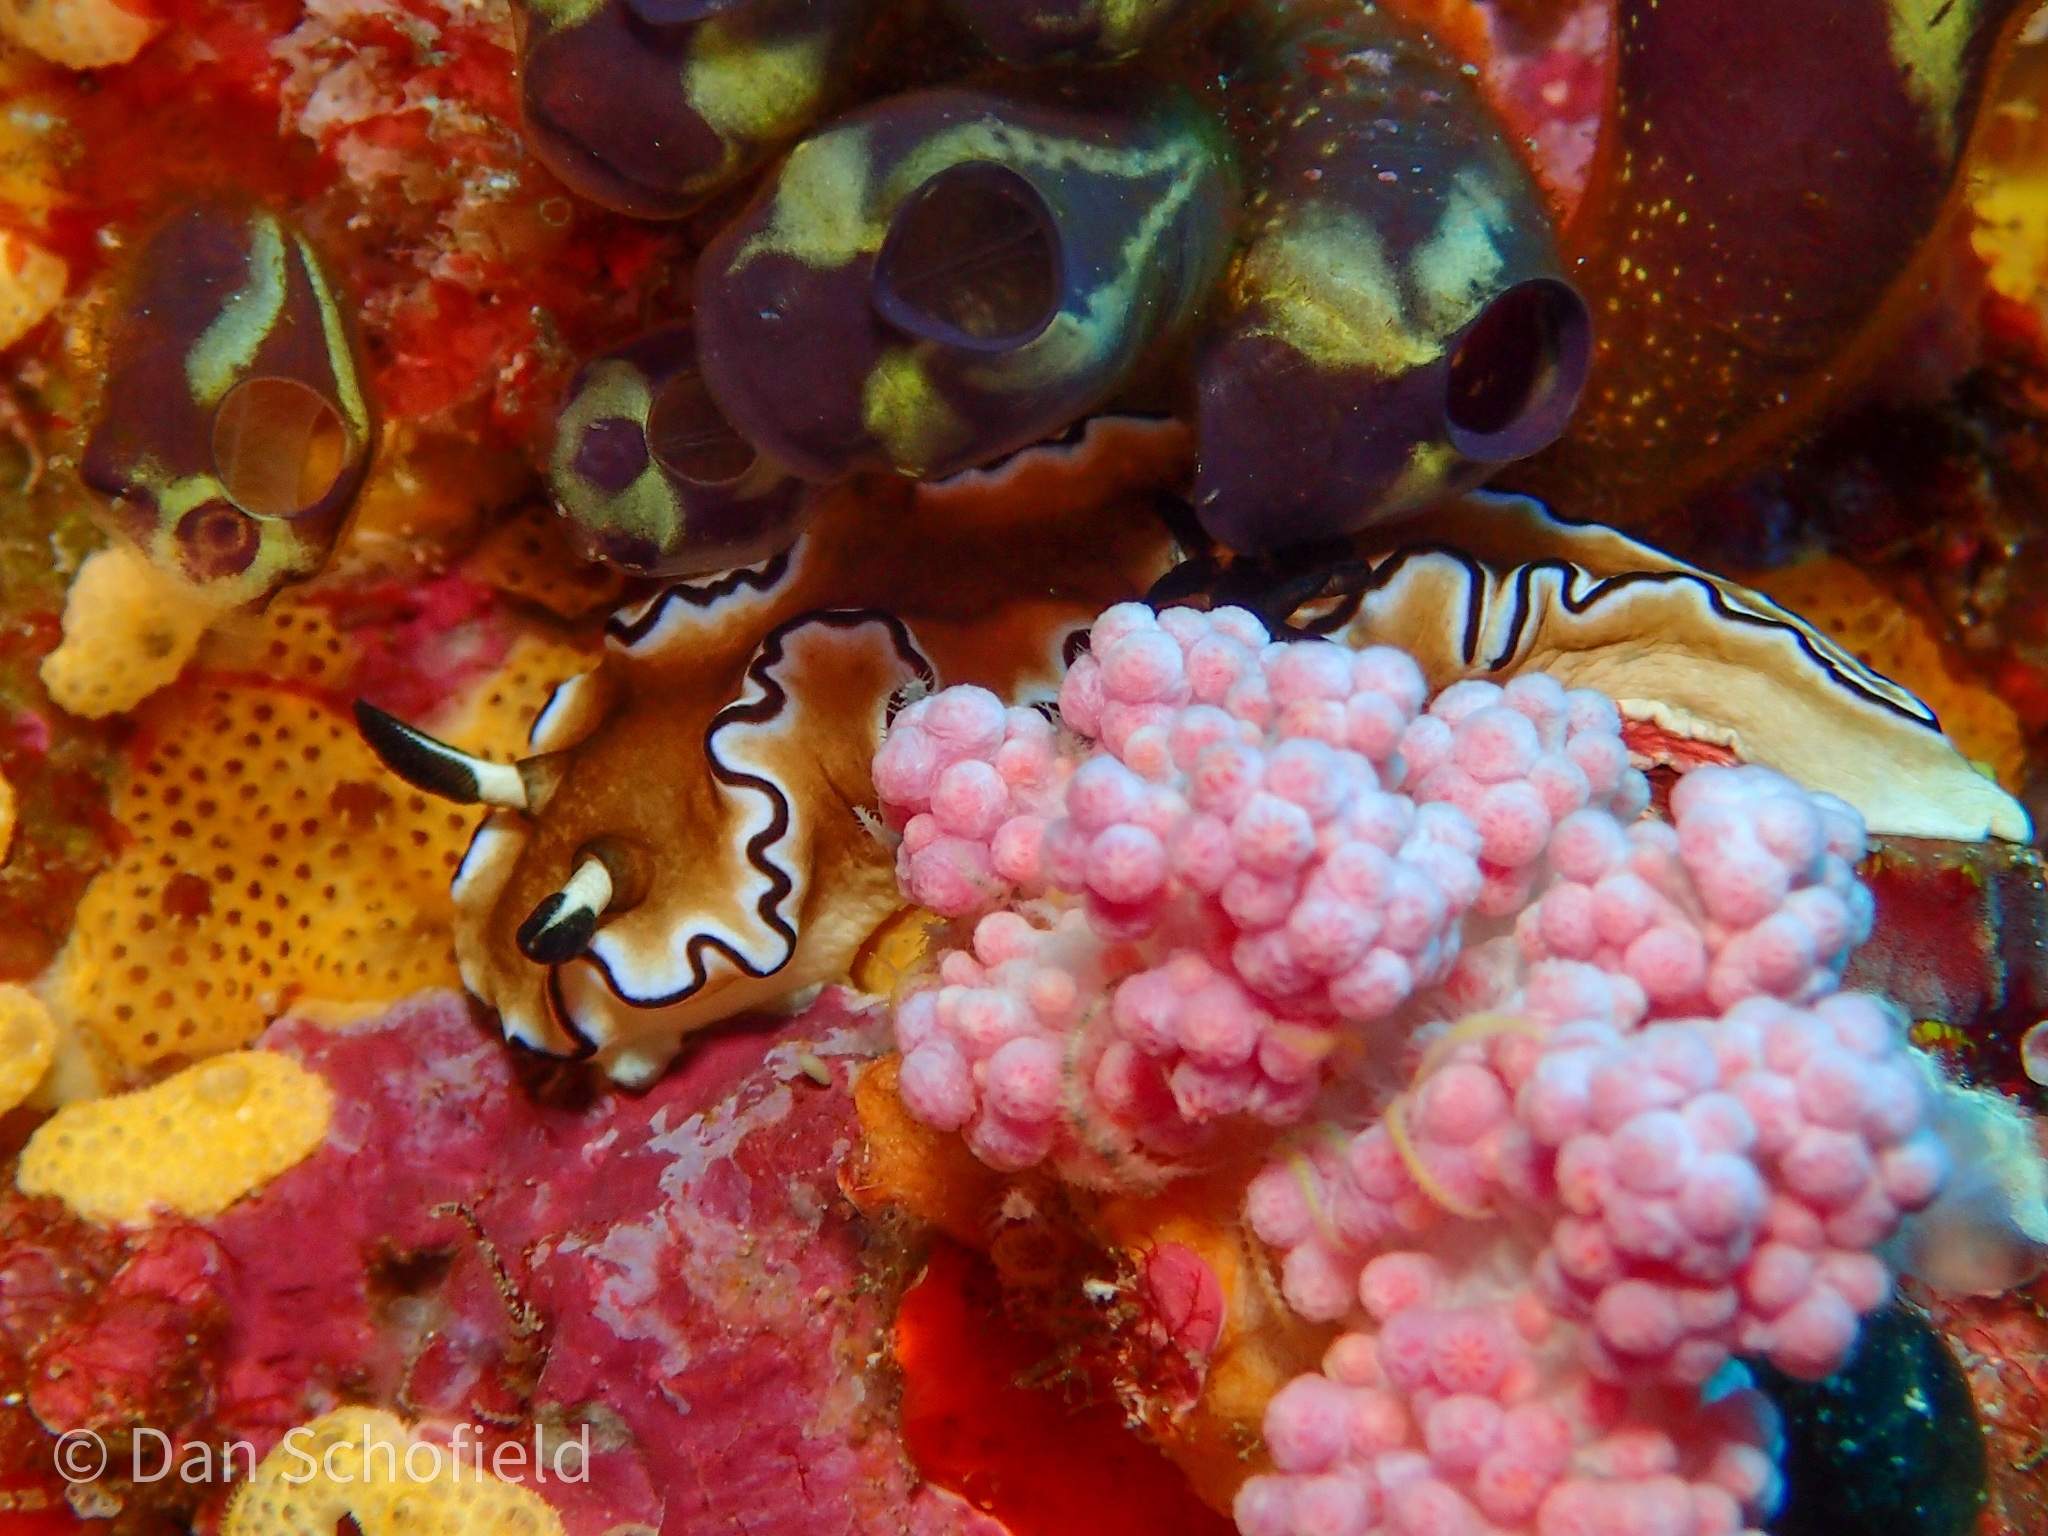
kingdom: Animalia
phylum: Mollusca
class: Gastropoda
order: Nudibranchia
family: Chromodorididae
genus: Doriprismatica
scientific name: Doriprismatica sibogae
